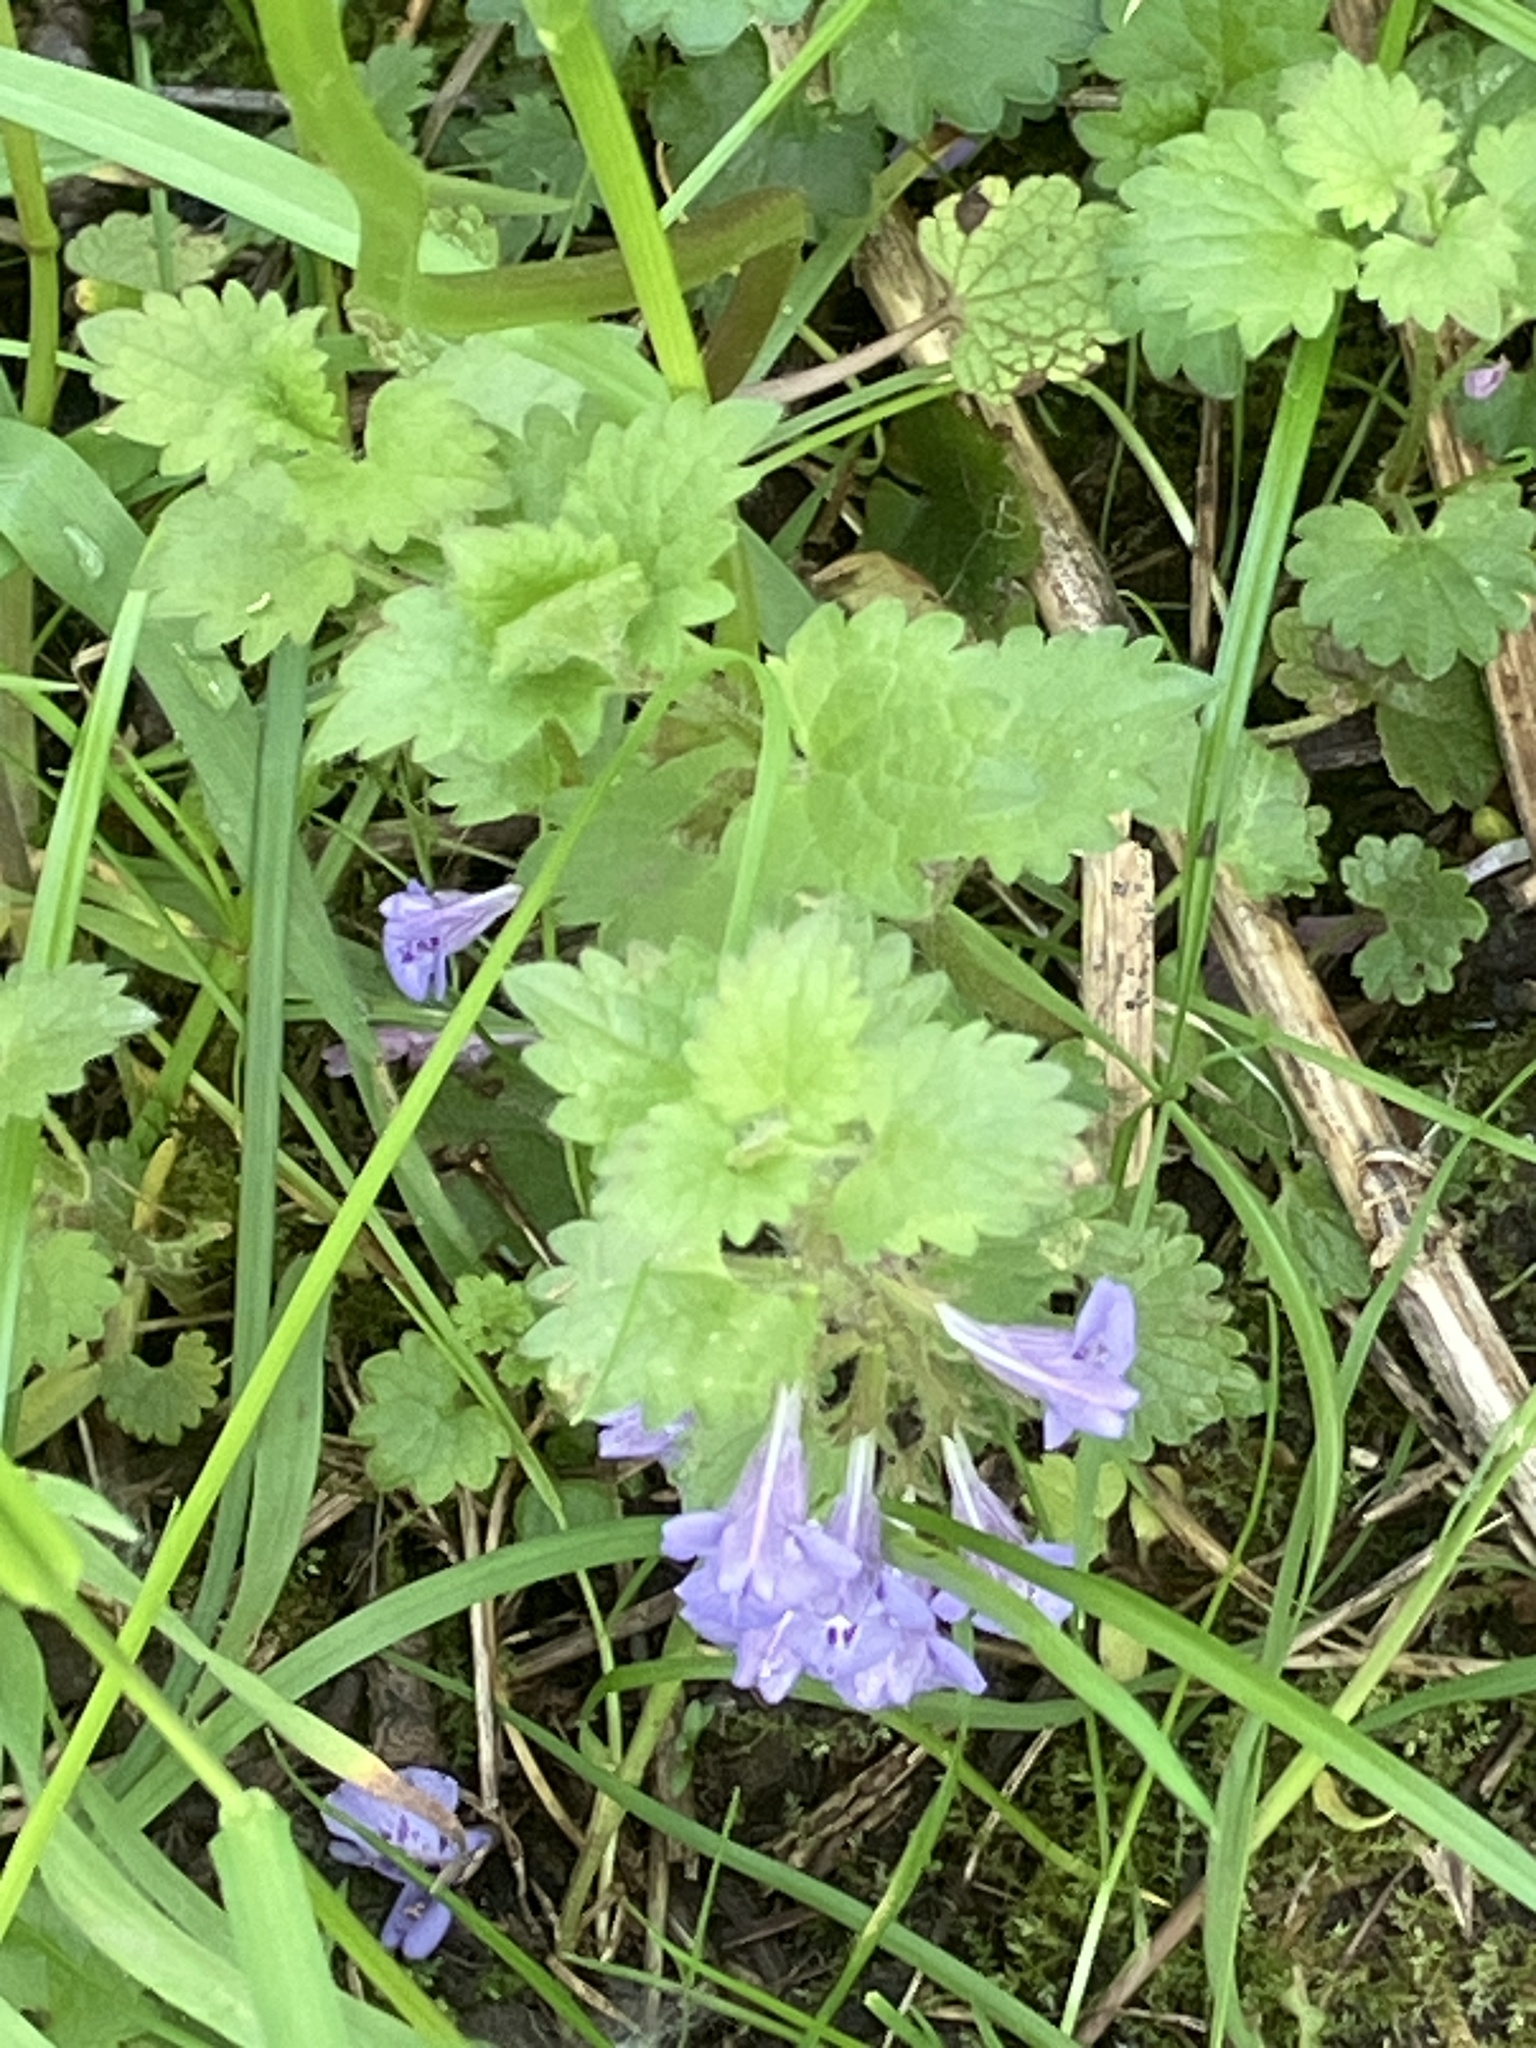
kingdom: Plantae
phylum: Tracheophyta
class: Magnoliopsida
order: Lamiales
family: Lamiaceae
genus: Glechoma
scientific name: Glechoma hederacea
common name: Ground ivy
